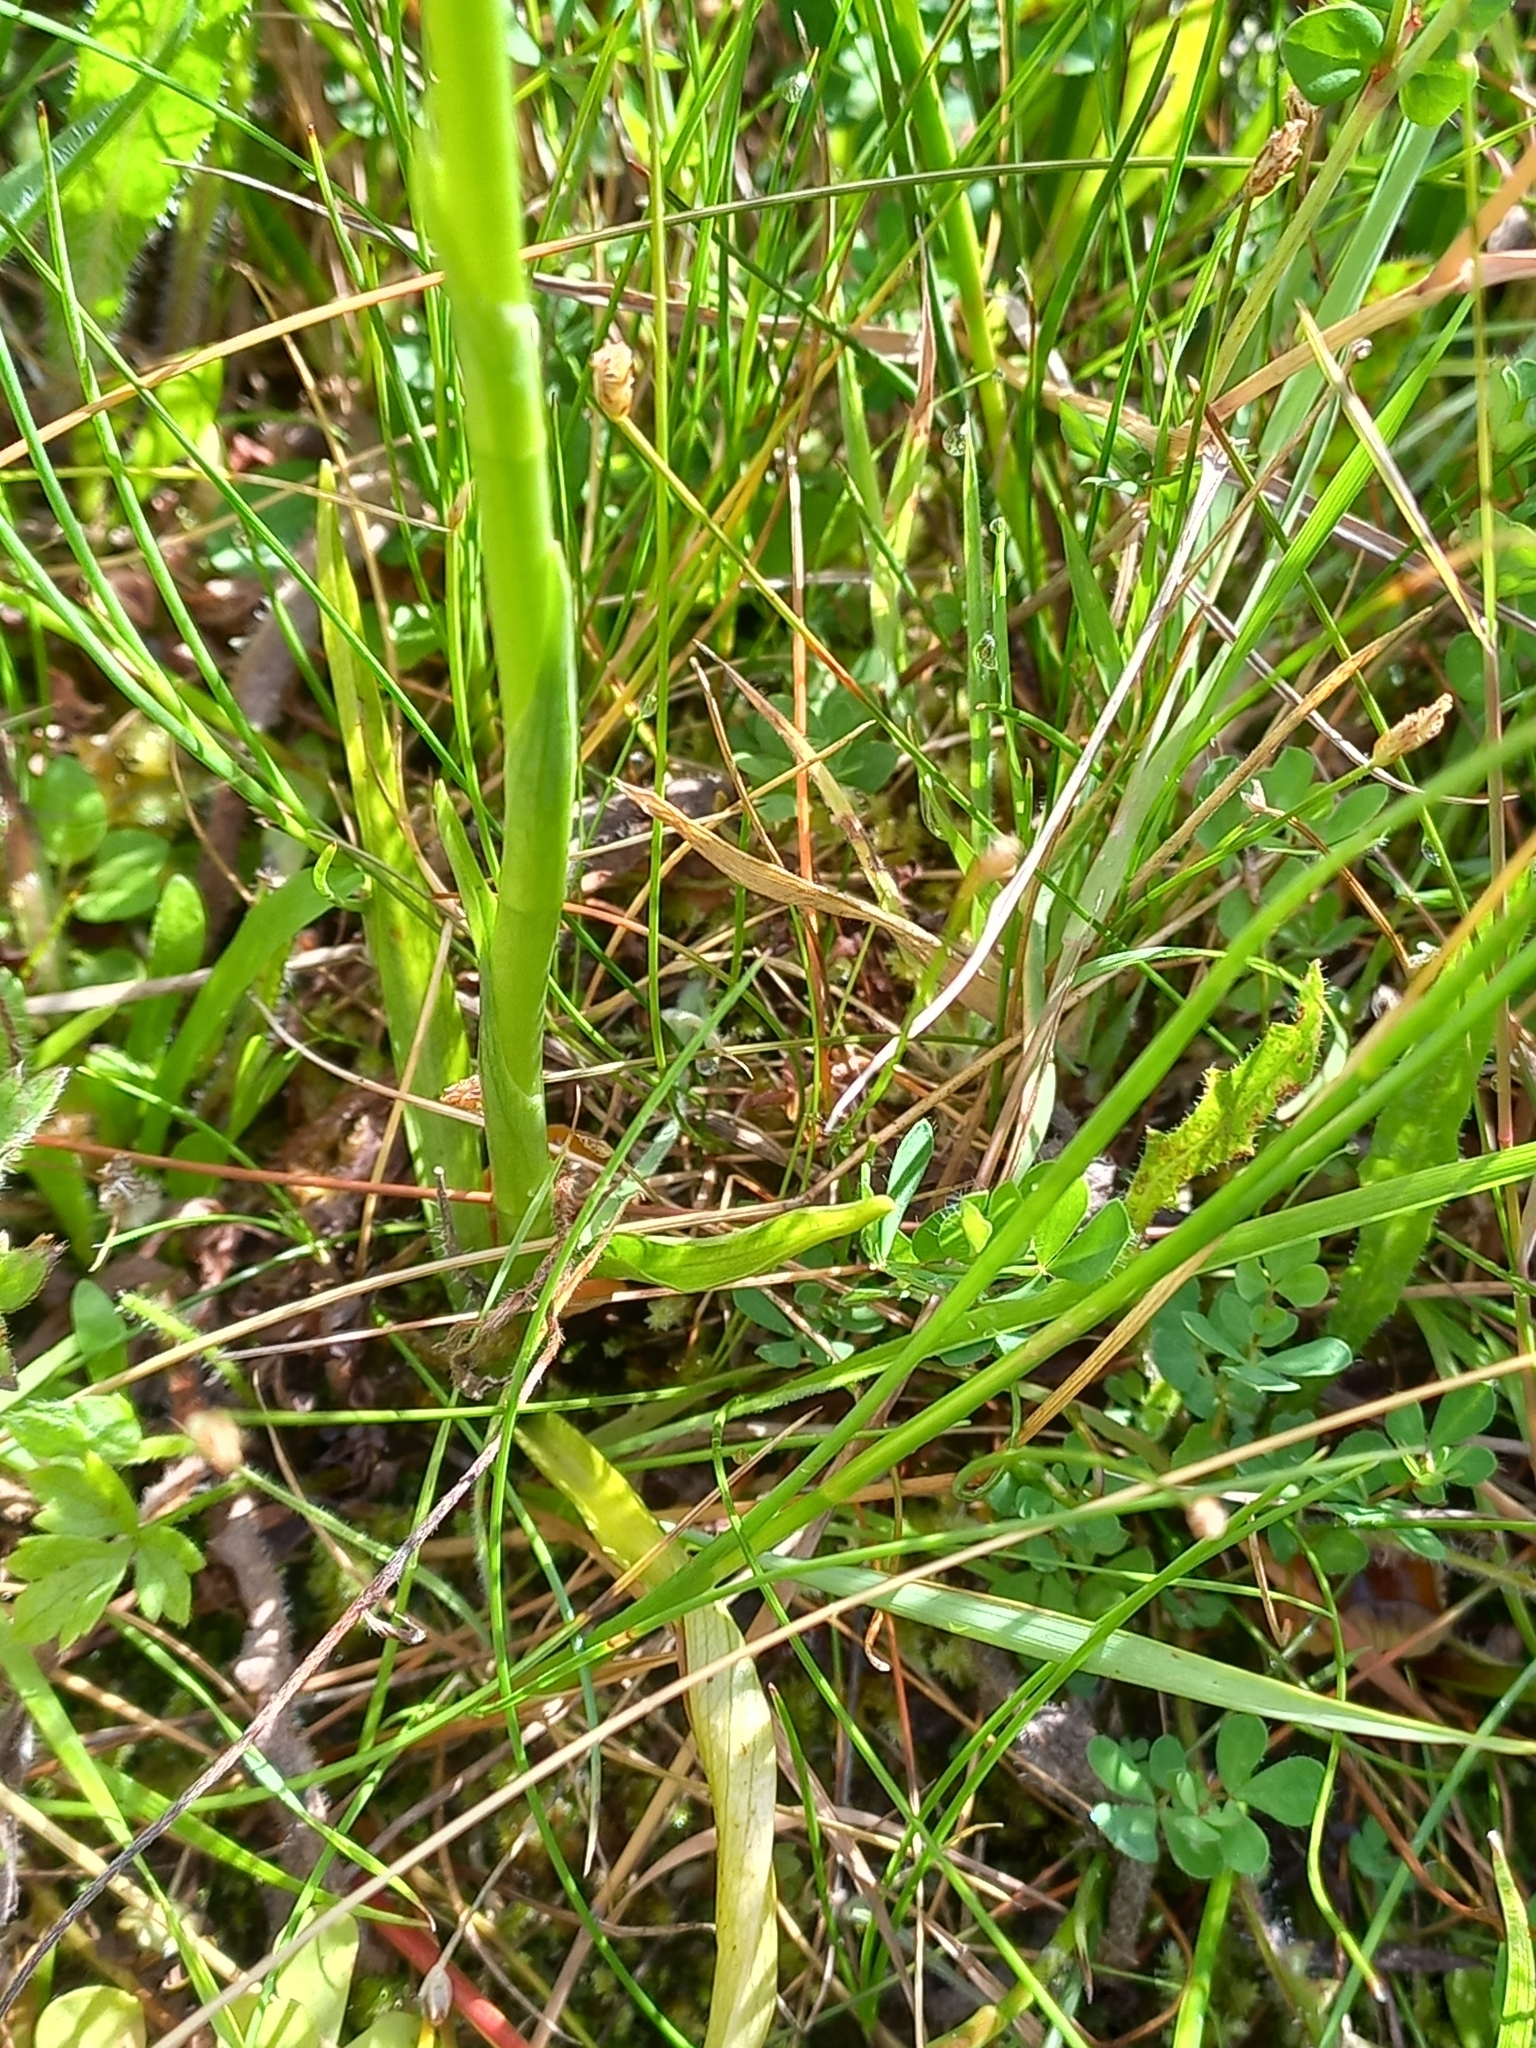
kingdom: Plantae
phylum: Tracheophyta
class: Liliopsida
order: Asparagales
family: Orchidaceae
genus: Spiranthes
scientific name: Spiranthes australis
